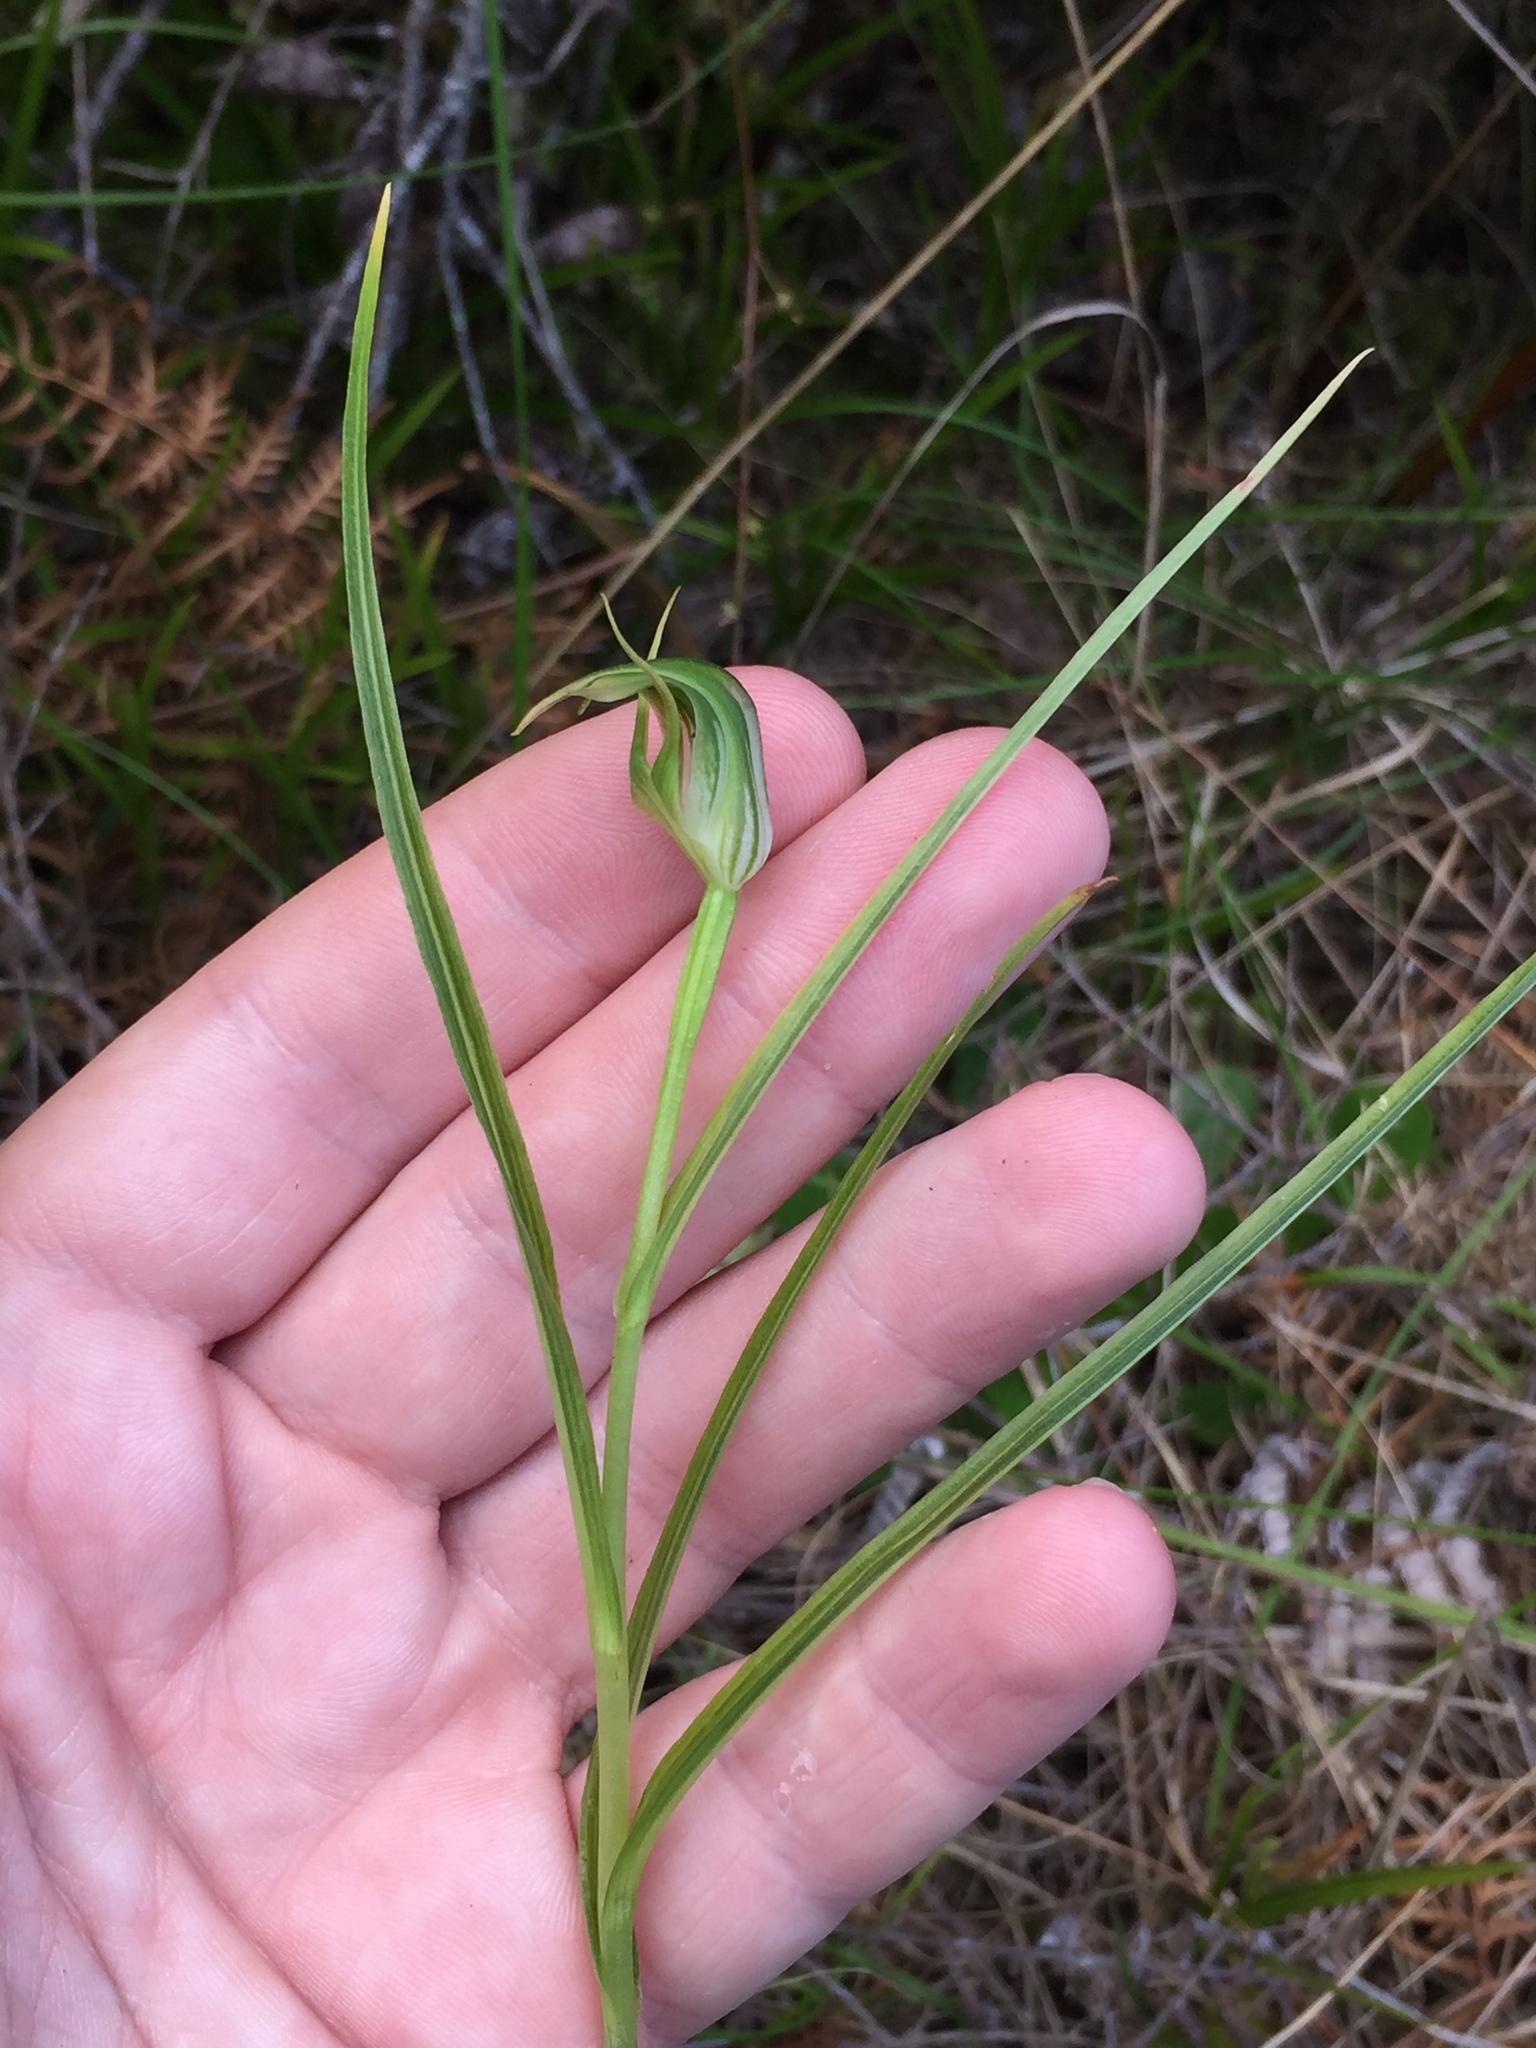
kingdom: Plantae
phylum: Tracheophyta
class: Liliopsida
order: Asparagales
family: Orchidaceae
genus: Pterostylis
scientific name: Pterostylis graminea
